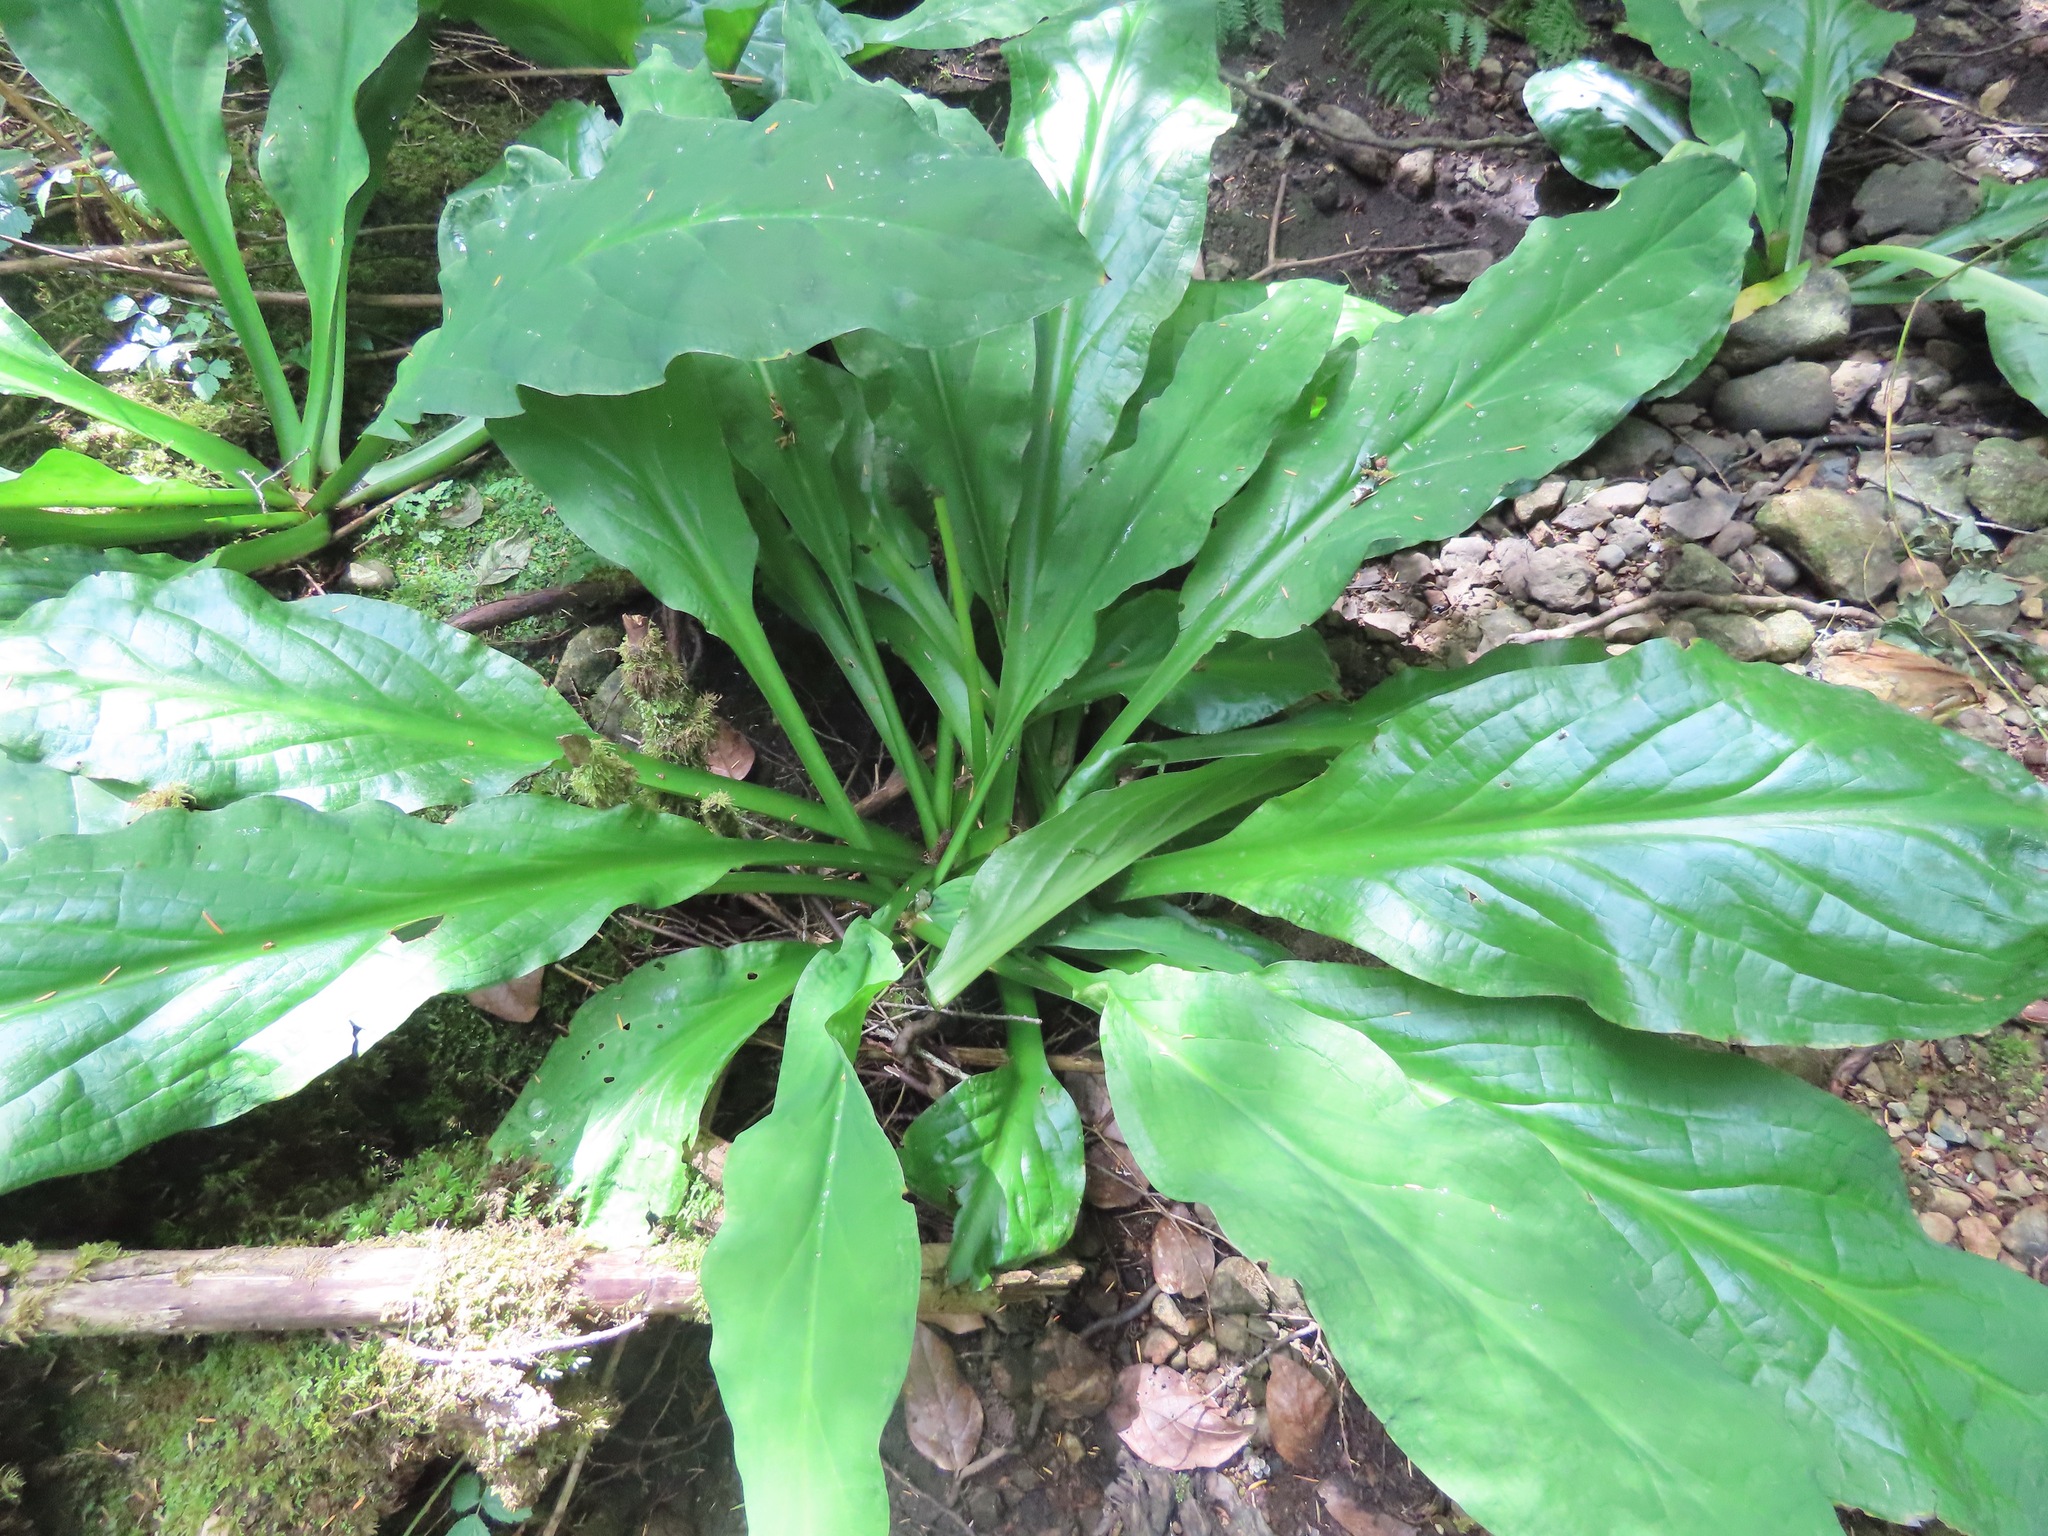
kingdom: Plantae
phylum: Tracheophyta
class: Liliopsida
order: Alismatales
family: Araceae
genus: Lysichiton
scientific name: Lysichiton americanus
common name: American skunk cabbage
